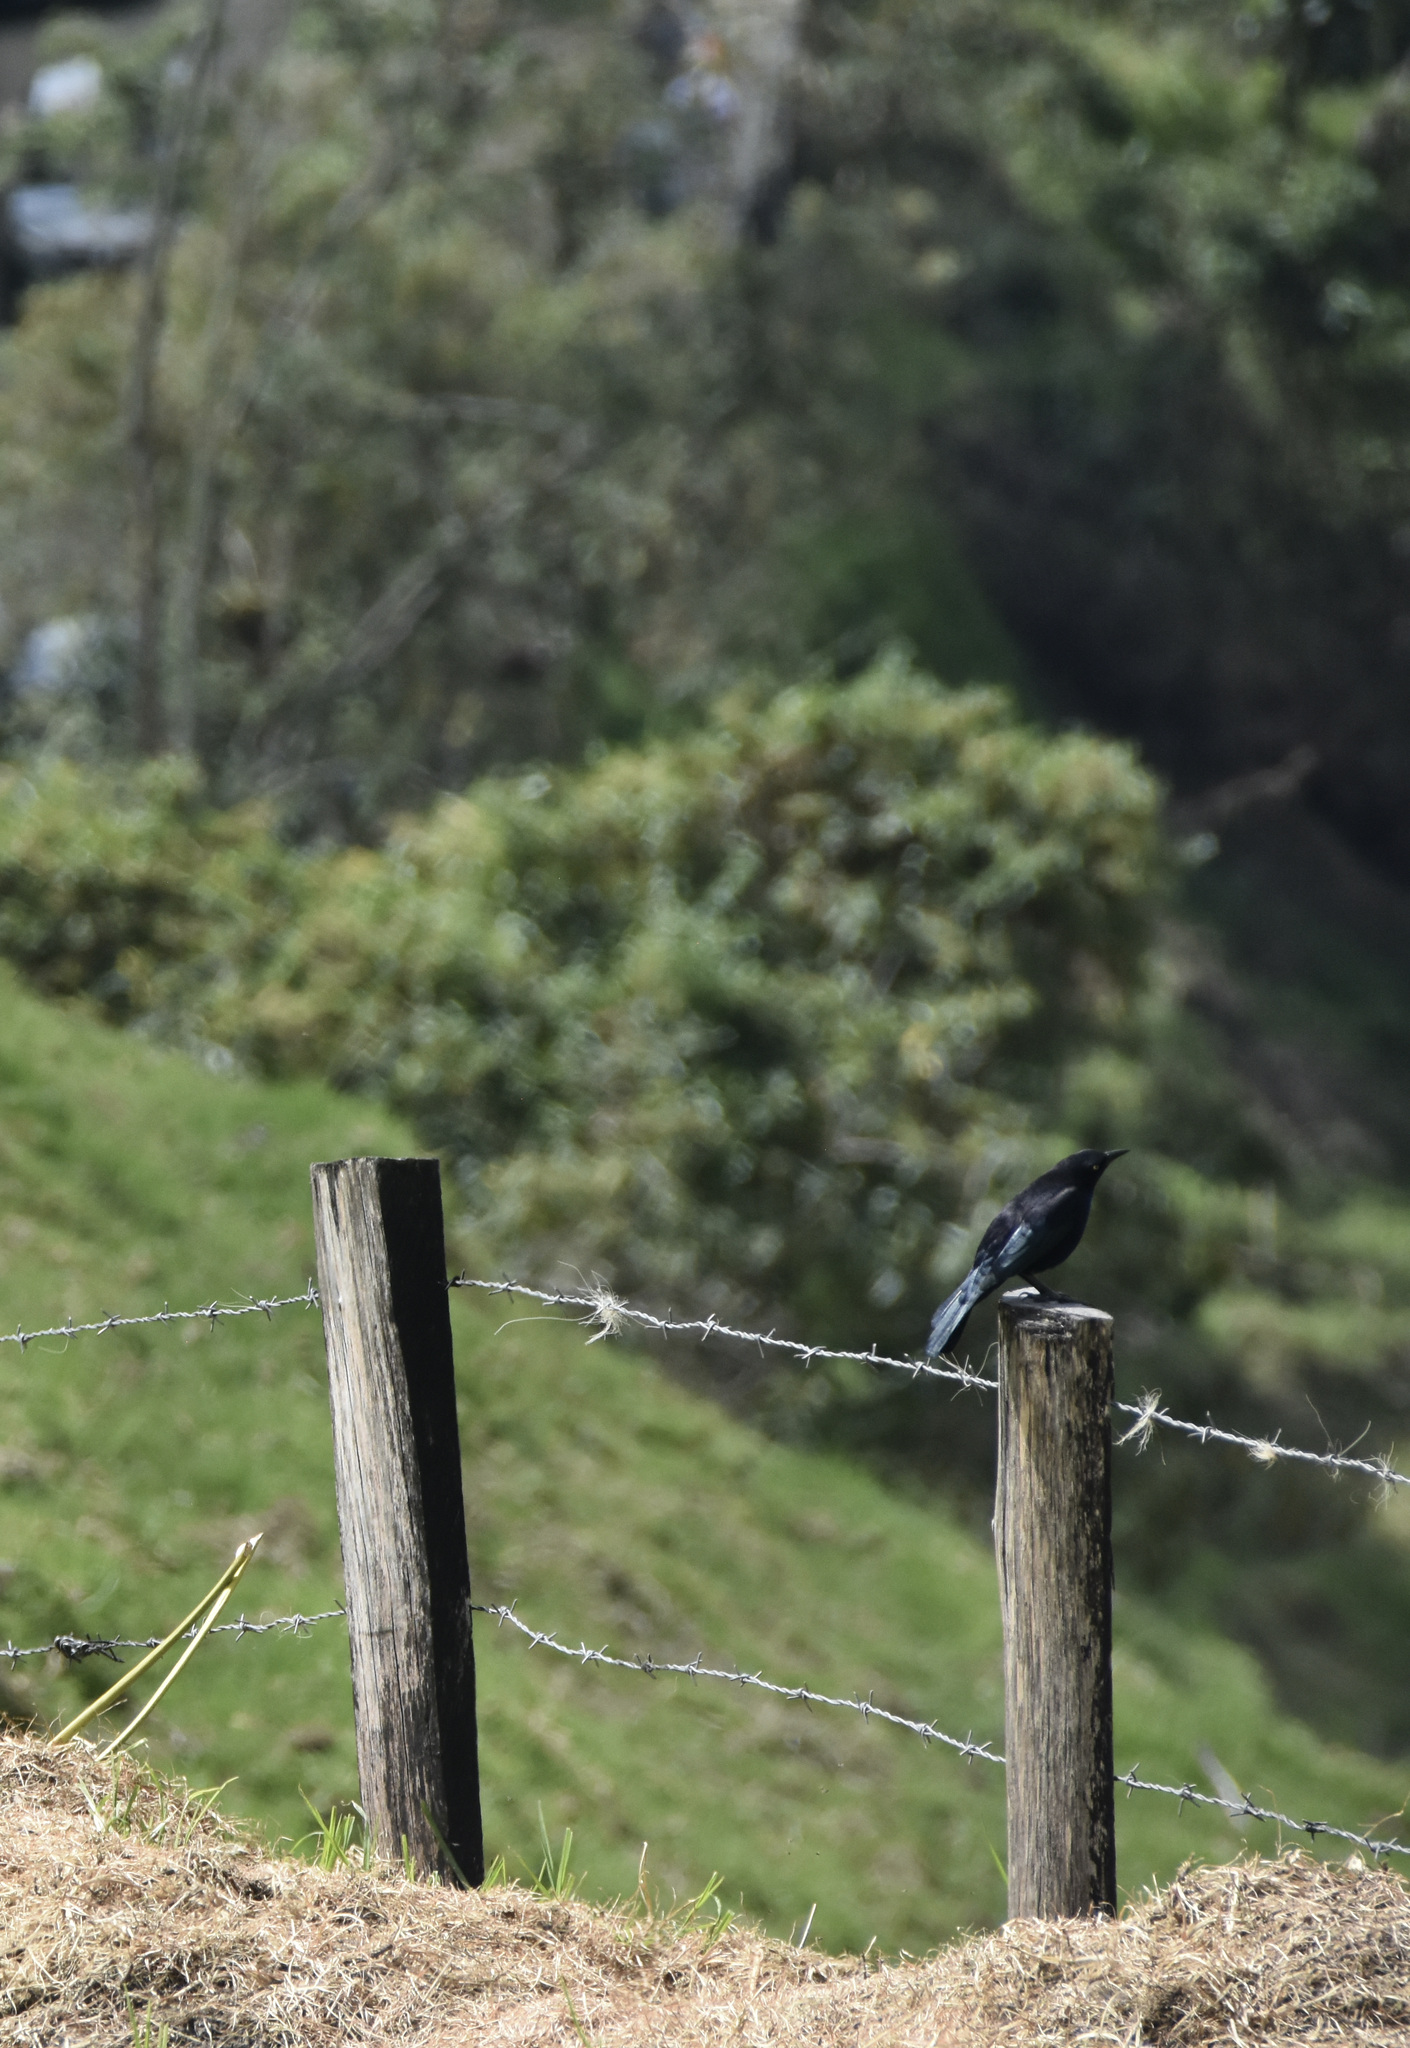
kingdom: Animalia
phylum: Chordata
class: Aves
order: Passeriformes
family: Icteridae
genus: Quiscalus
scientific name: Quiscalus lugubris
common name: Carib grackle
